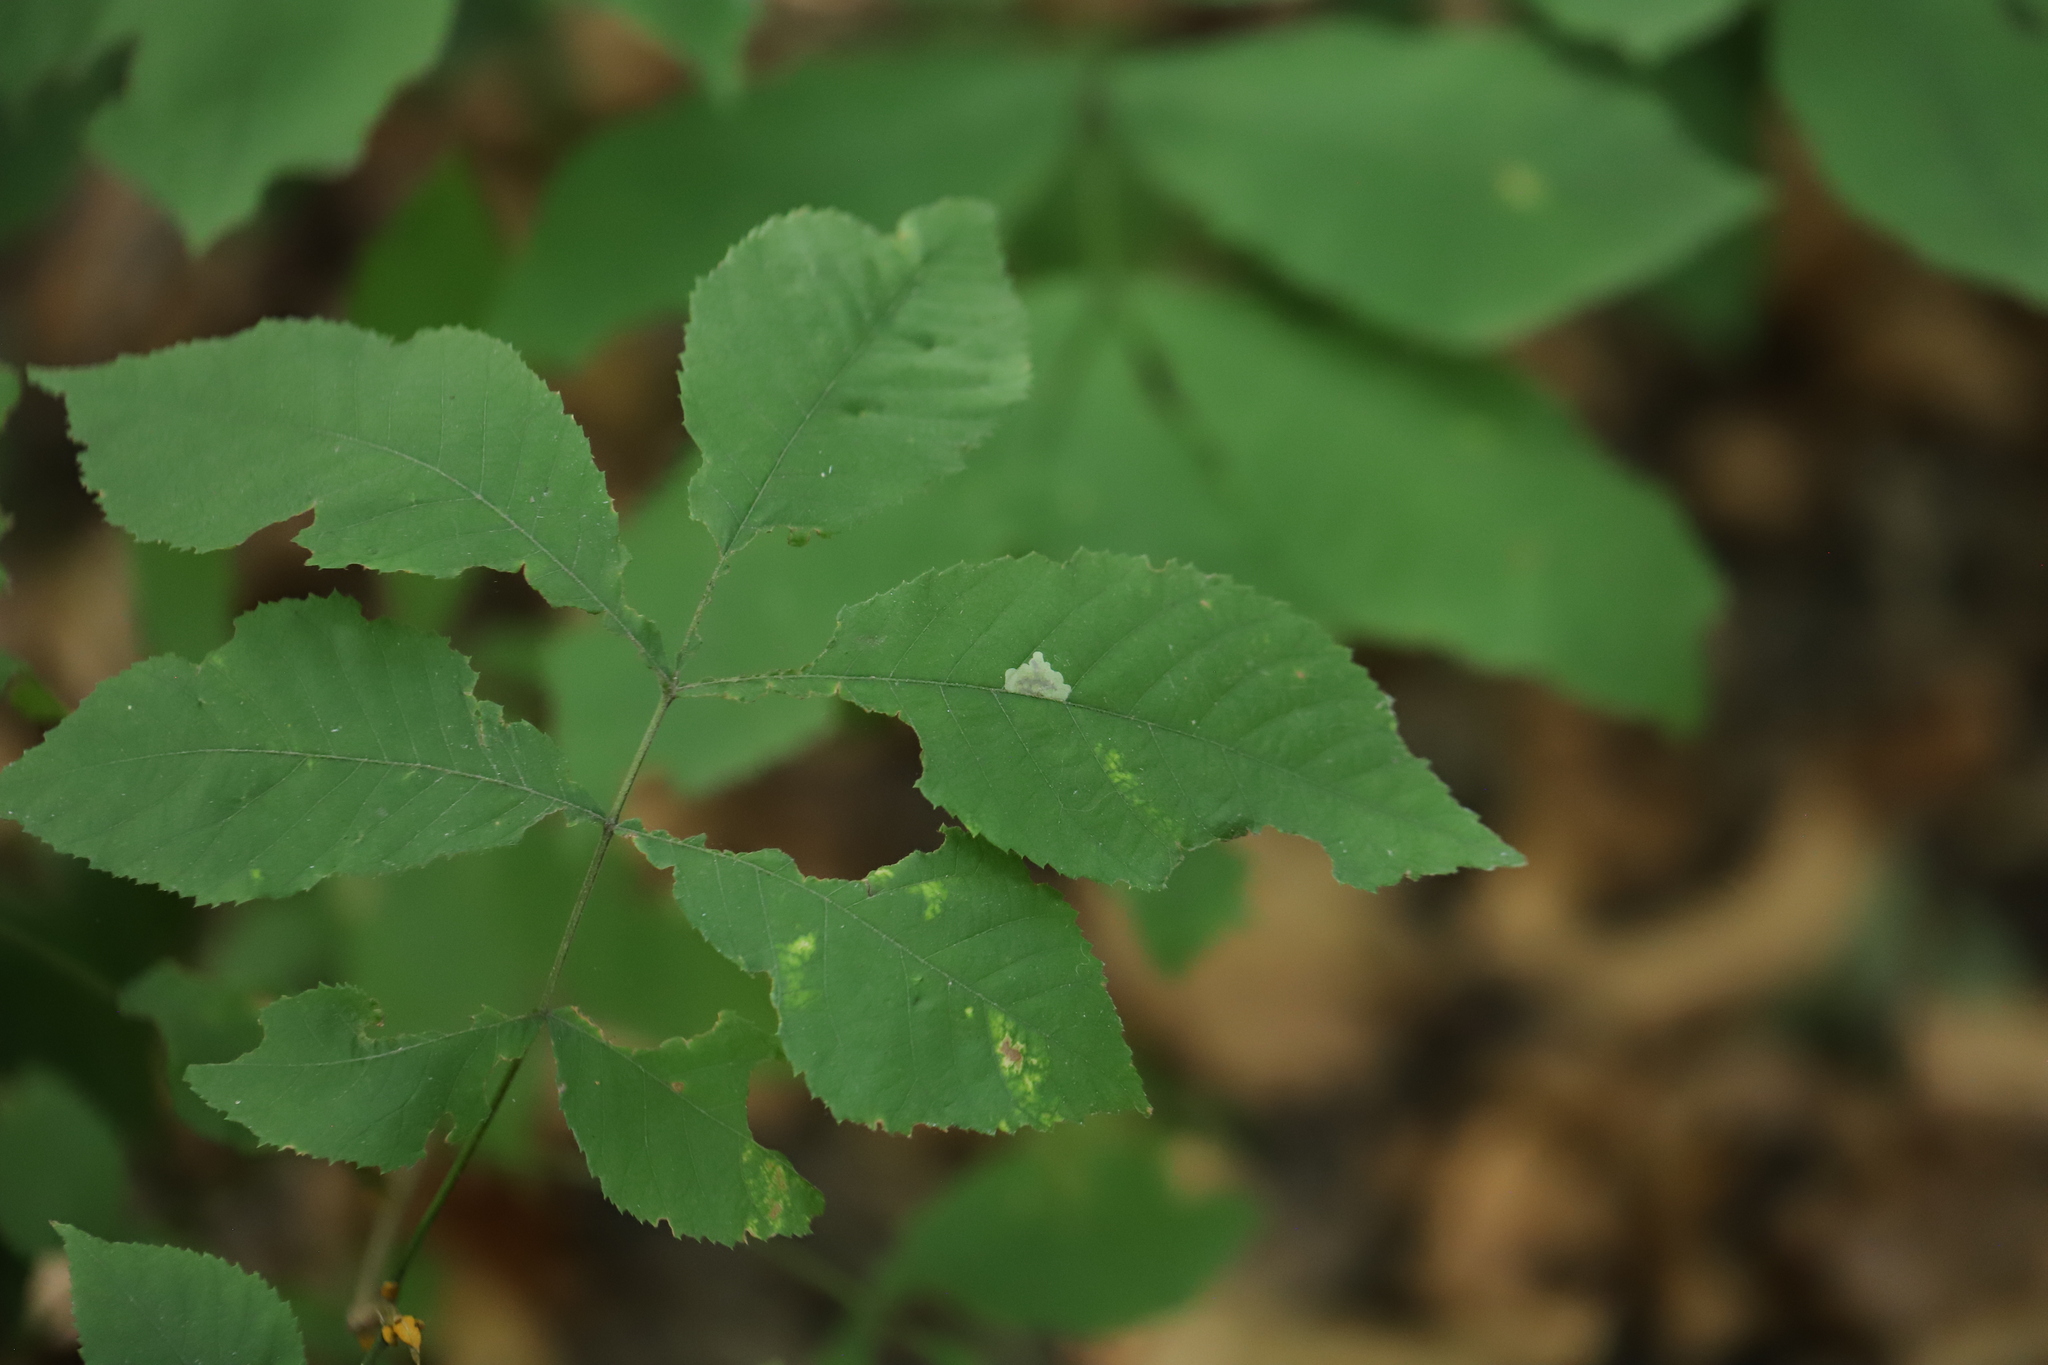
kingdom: Animalia
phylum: Arthropoda
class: Insecta
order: Lepidoptera
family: Gracillariidae
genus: Cameraria
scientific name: Cameraria caryaefoliella
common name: Pecan leafminer moth
